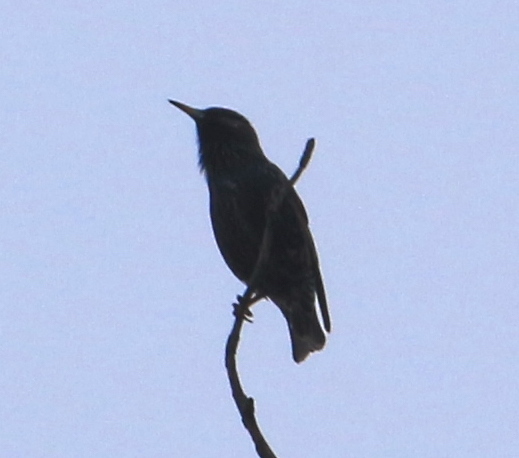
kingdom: Animalia
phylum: Chordata
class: Aves
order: Passeriformes
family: Sturnidae
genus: Sturnus
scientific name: Sturnus vulgaris
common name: Common starling
